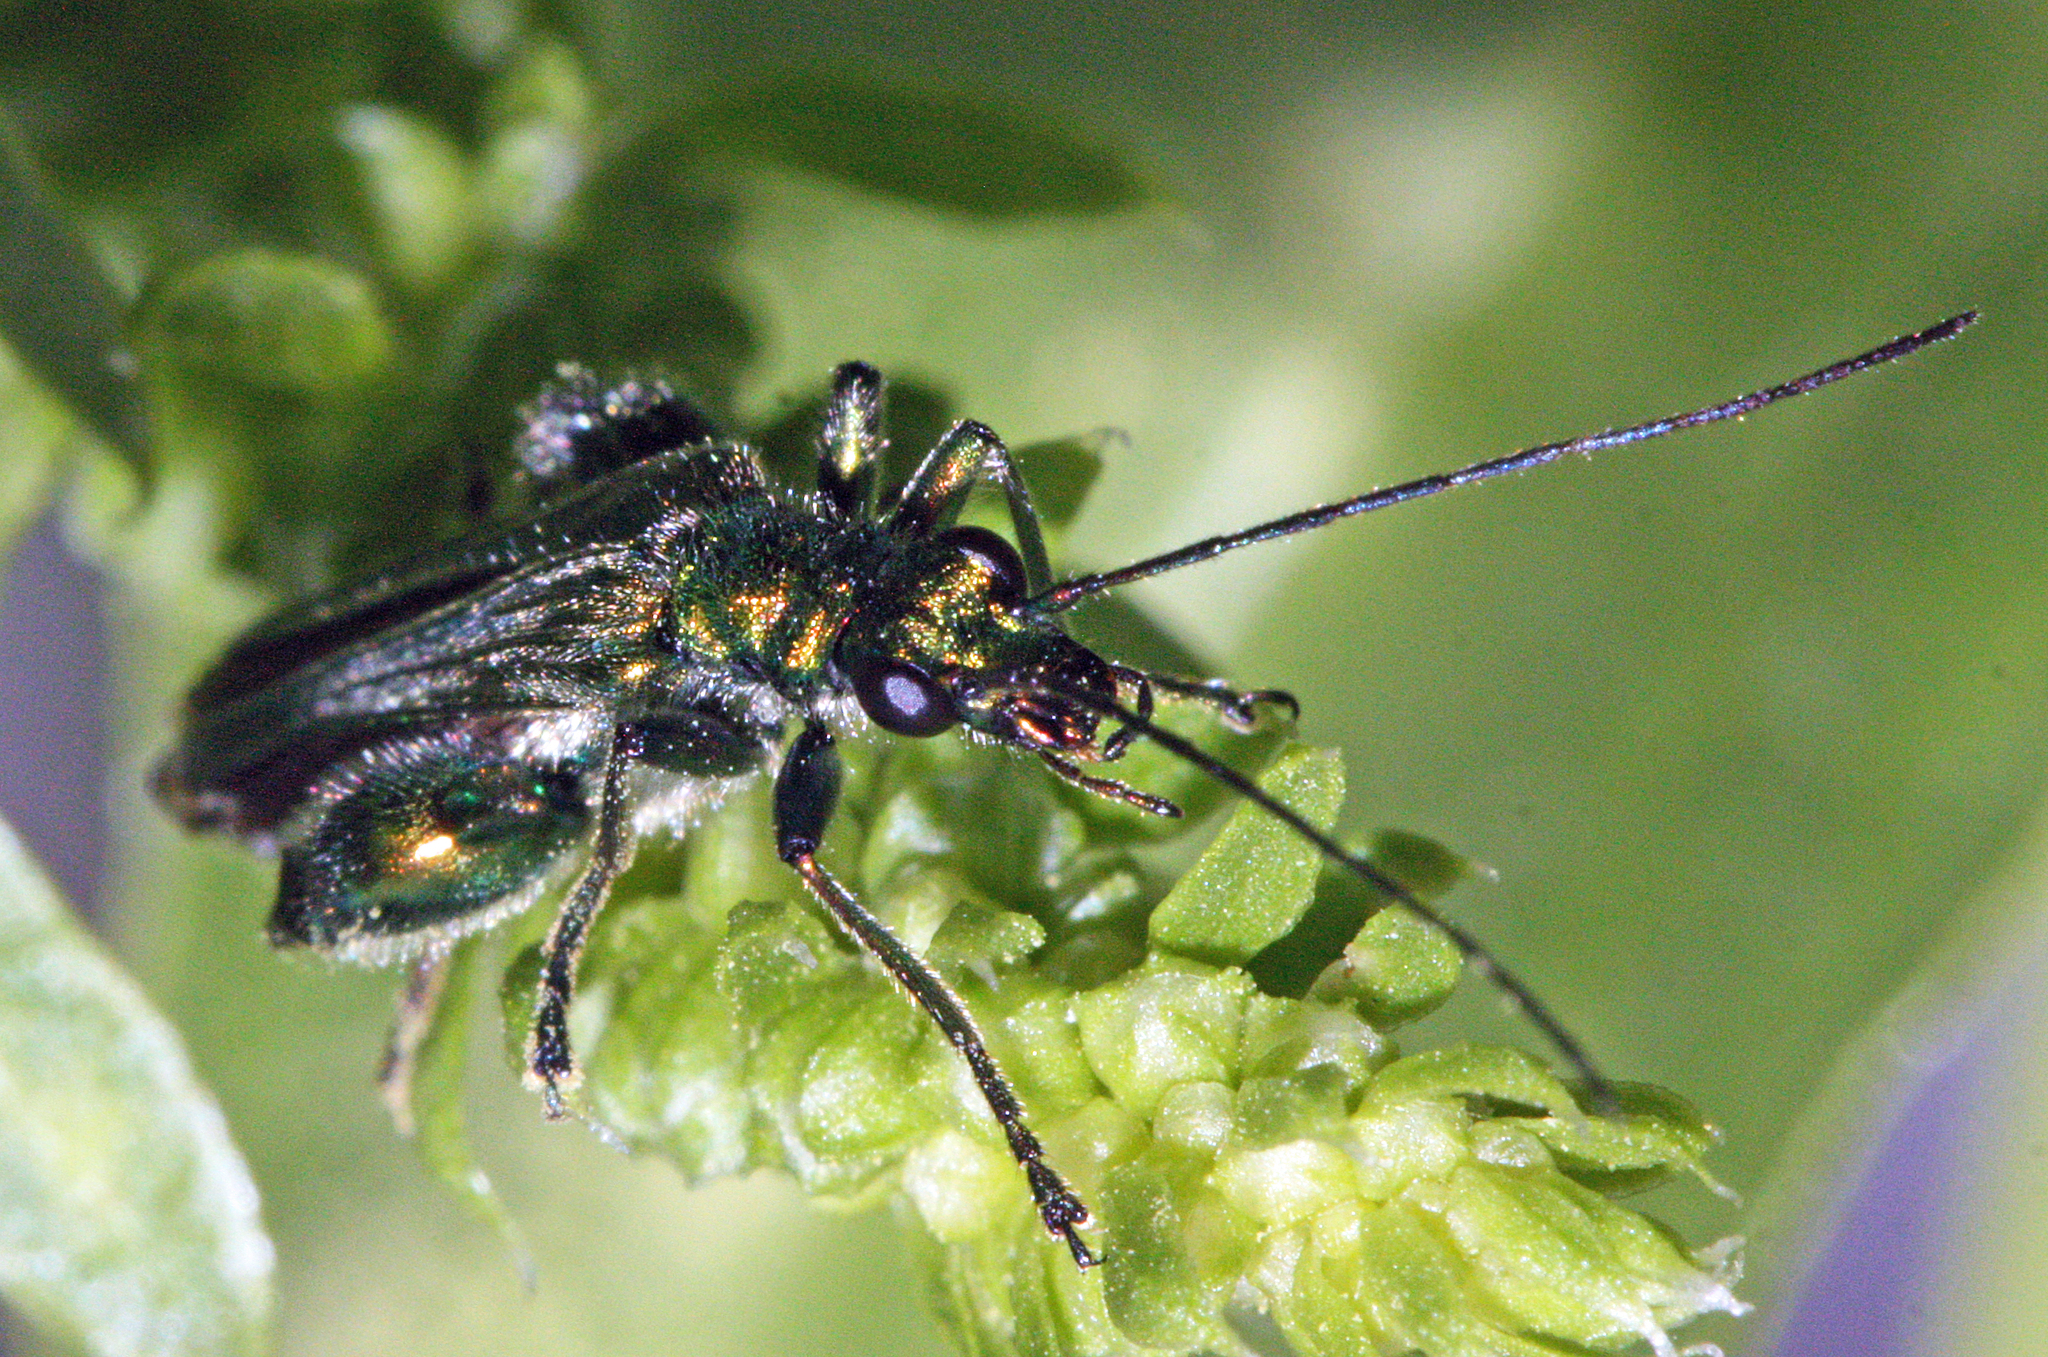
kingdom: Animalia
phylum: Arthropoda
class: Insecta
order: Coleoptera
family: Oedemeridae
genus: Oedemera
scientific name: Oedemera nobilis
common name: Swollen-thighed beetle
